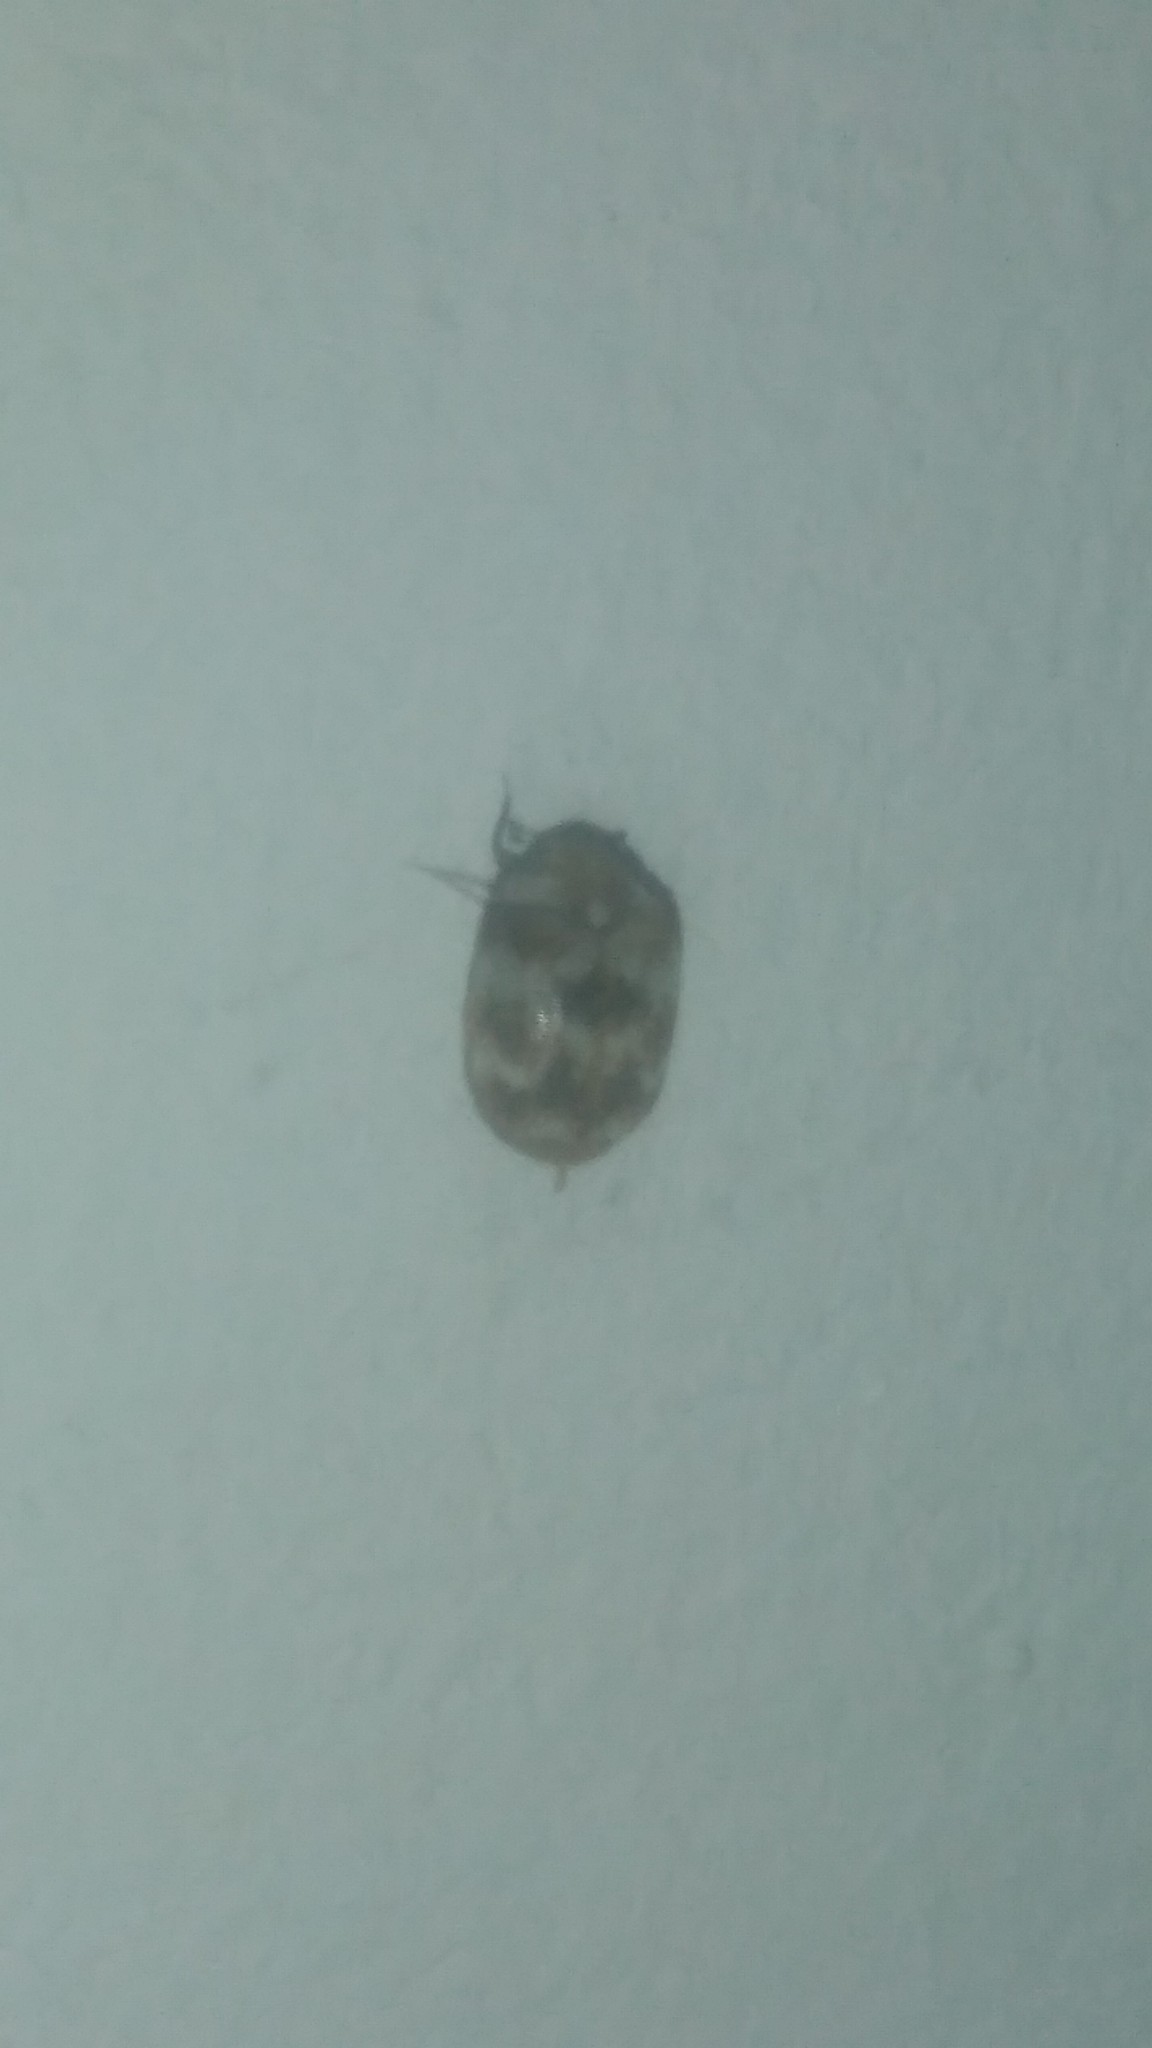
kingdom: Animalia
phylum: Arthropoda
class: Insecta
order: Coleoptera
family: Dermestidae
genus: Anthrenus
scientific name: Anthrenus verbasci
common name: Varied carpet beetle
